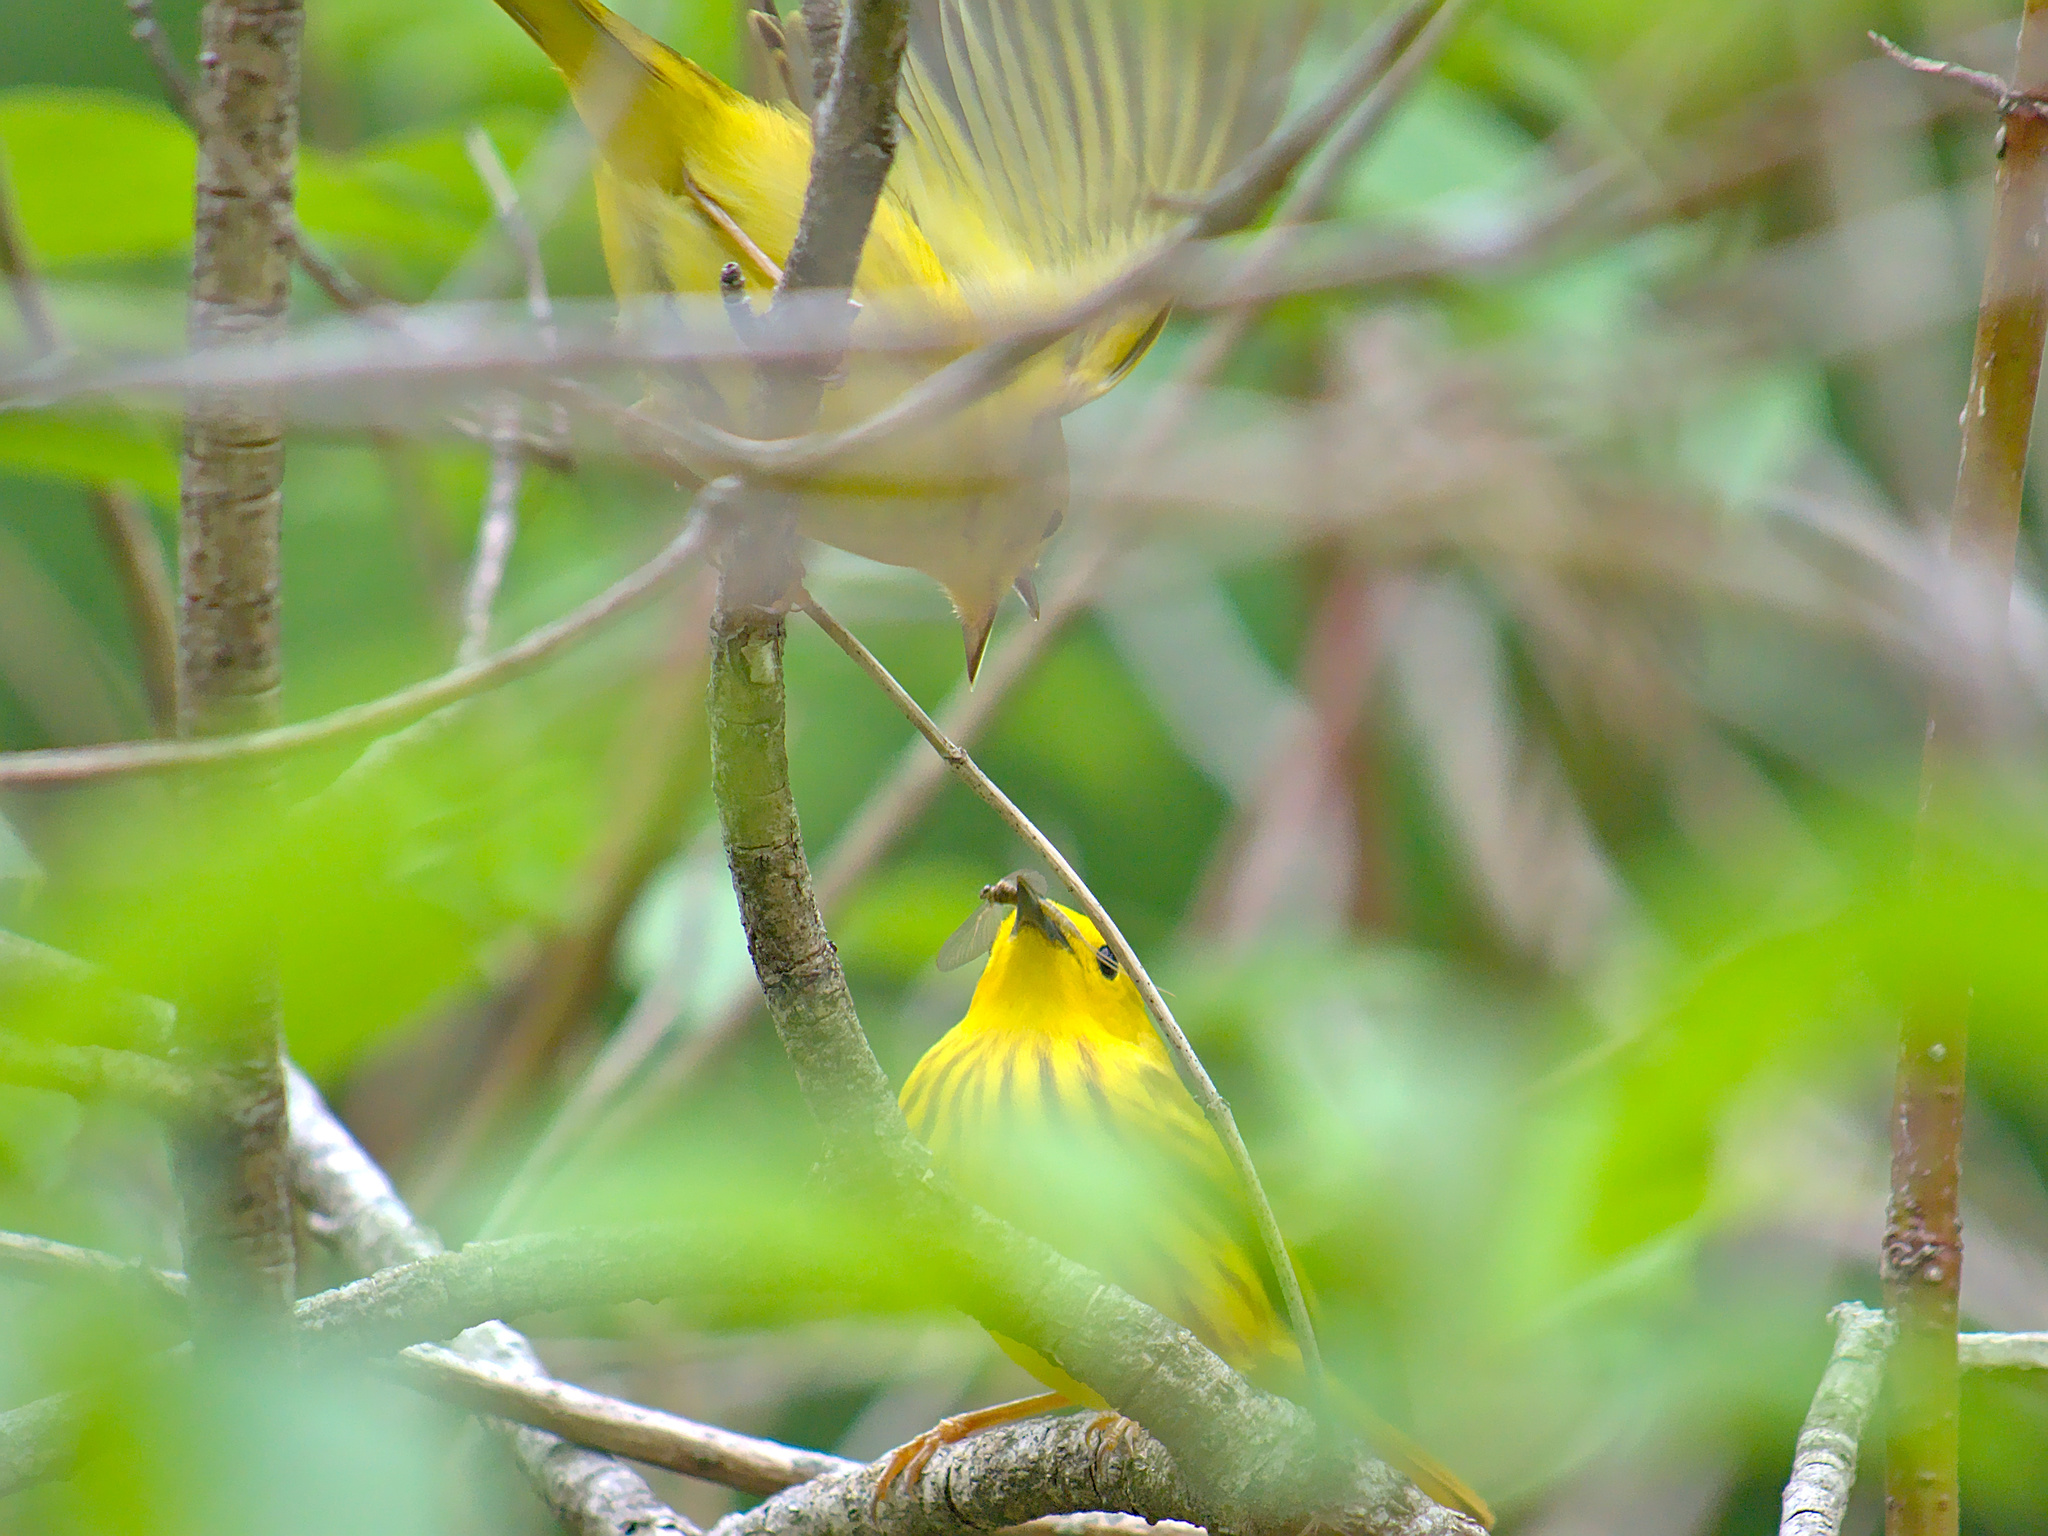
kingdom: Animalia
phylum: Chordata
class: Aves
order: Passeriformes
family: Parulidae
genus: Setophaga
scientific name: Setophaga petechia
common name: Yellow warbler
